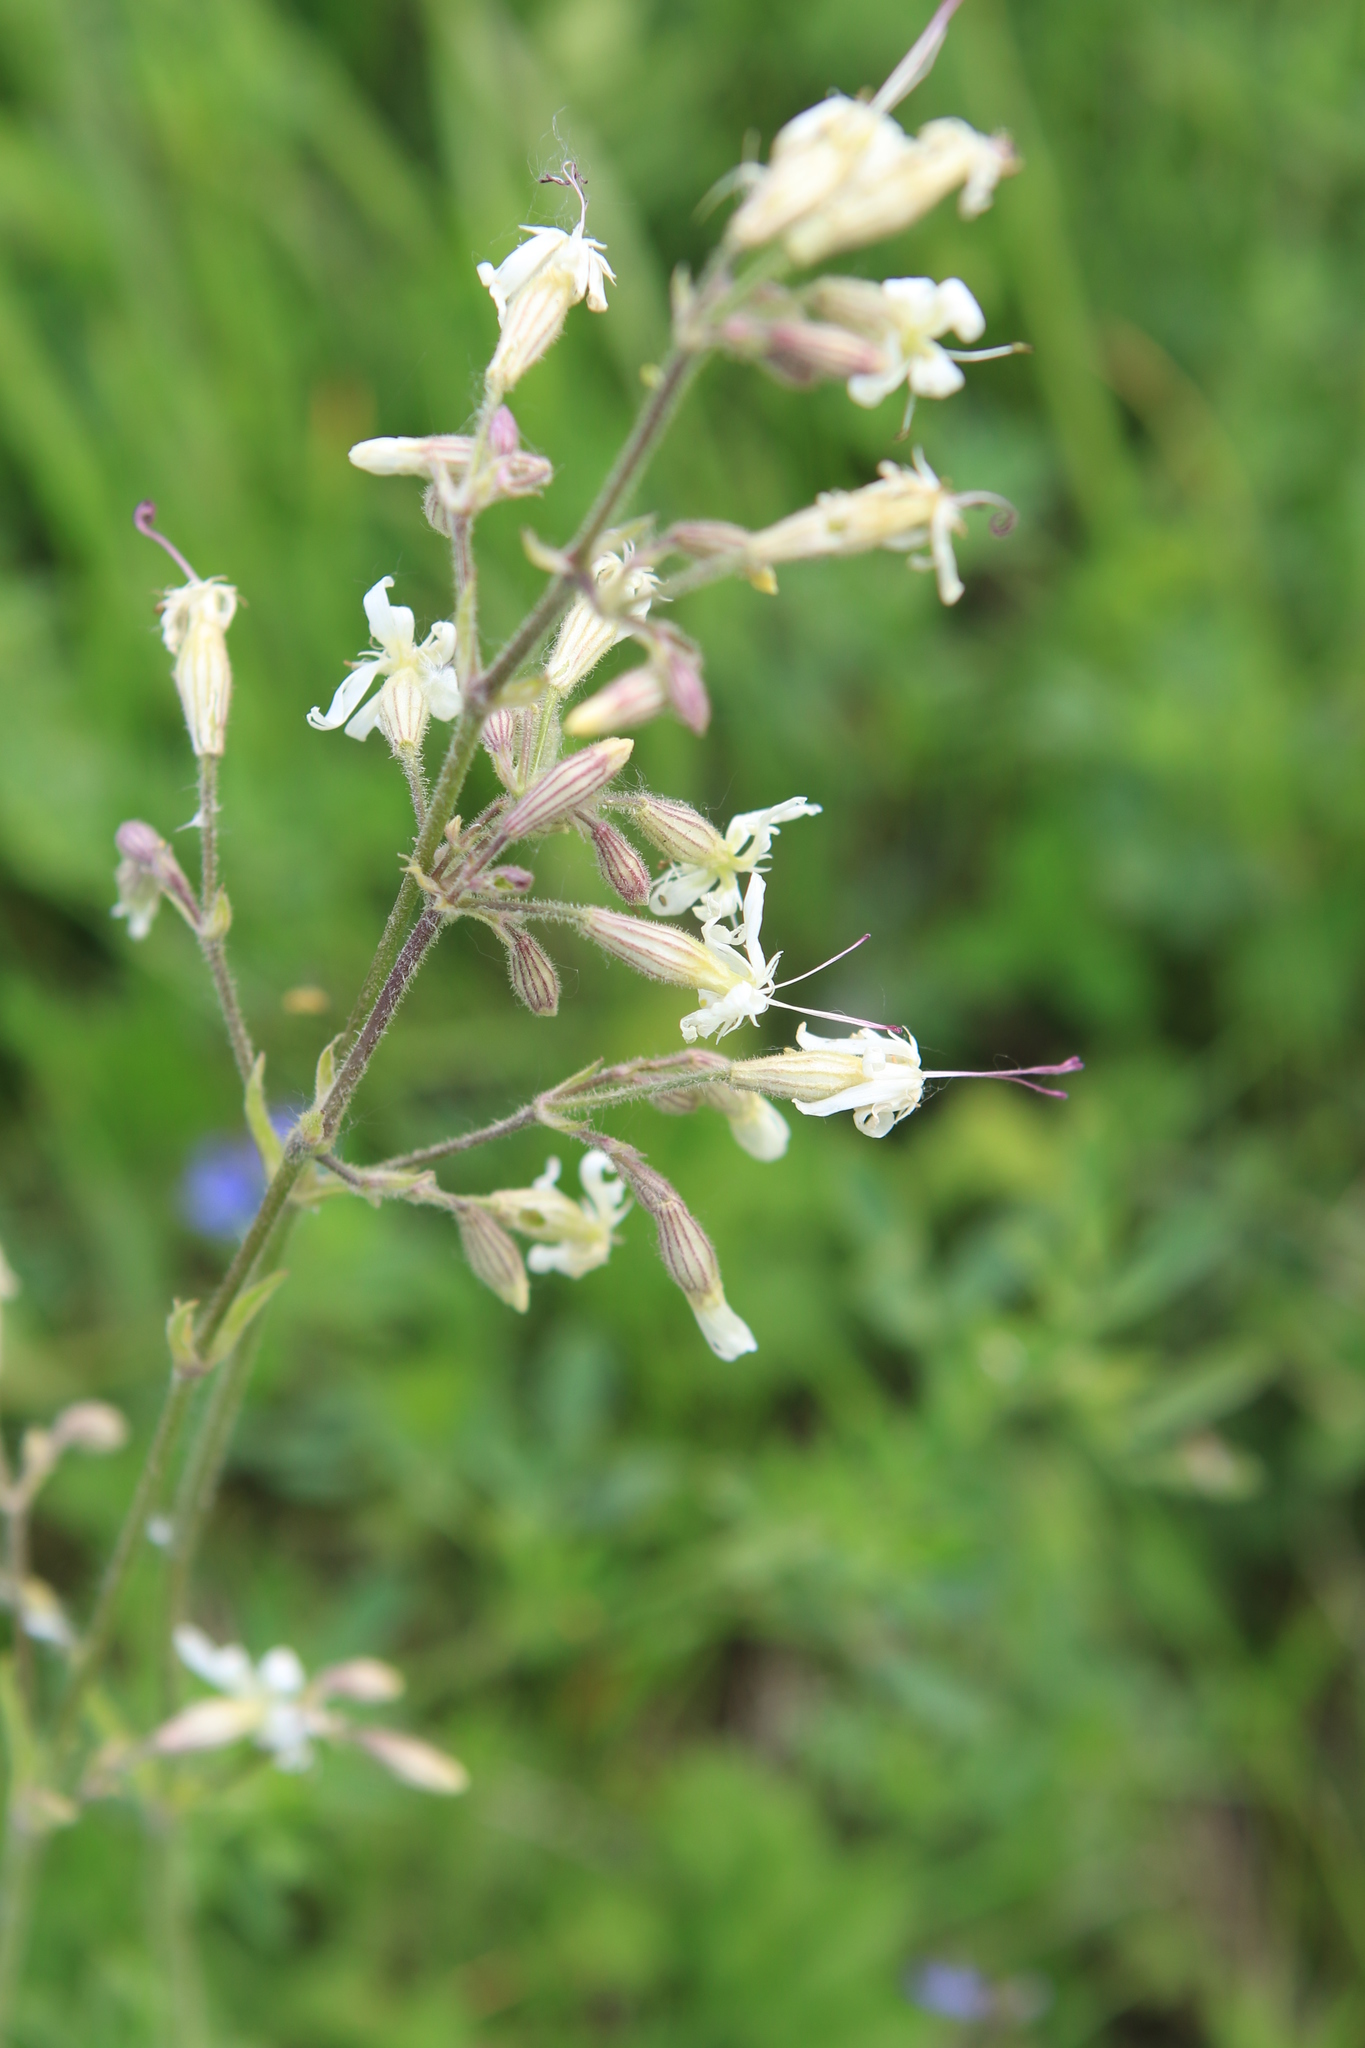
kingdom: Plantae
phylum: Tracheophyta
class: Magnoliopsida
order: Caryophyllales
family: Caryophyllaceae
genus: Silene
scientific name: Silene nutans
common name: Nottingham catchfly
